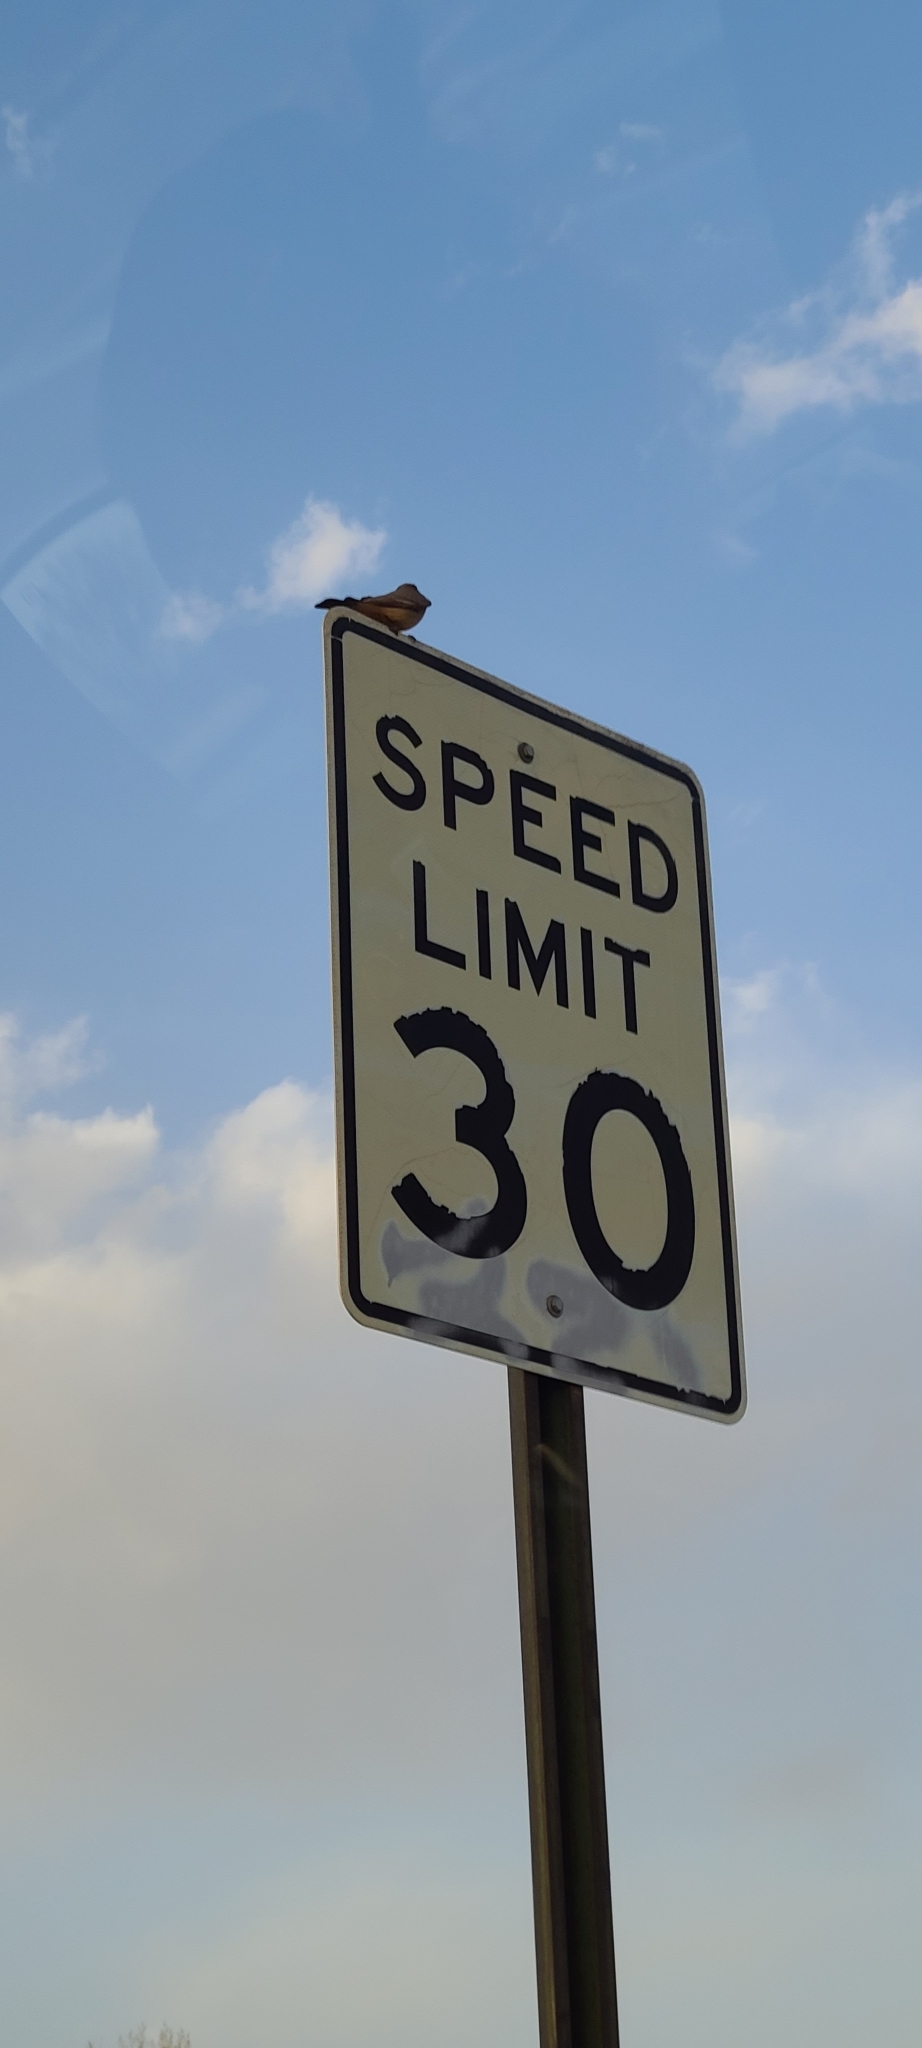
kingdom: Animalia
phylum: Chordata
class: Aves
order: Passeriformes
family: Tyrannidae
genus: Sayornis
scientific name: Sayornis saya
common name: Say's phoebe
